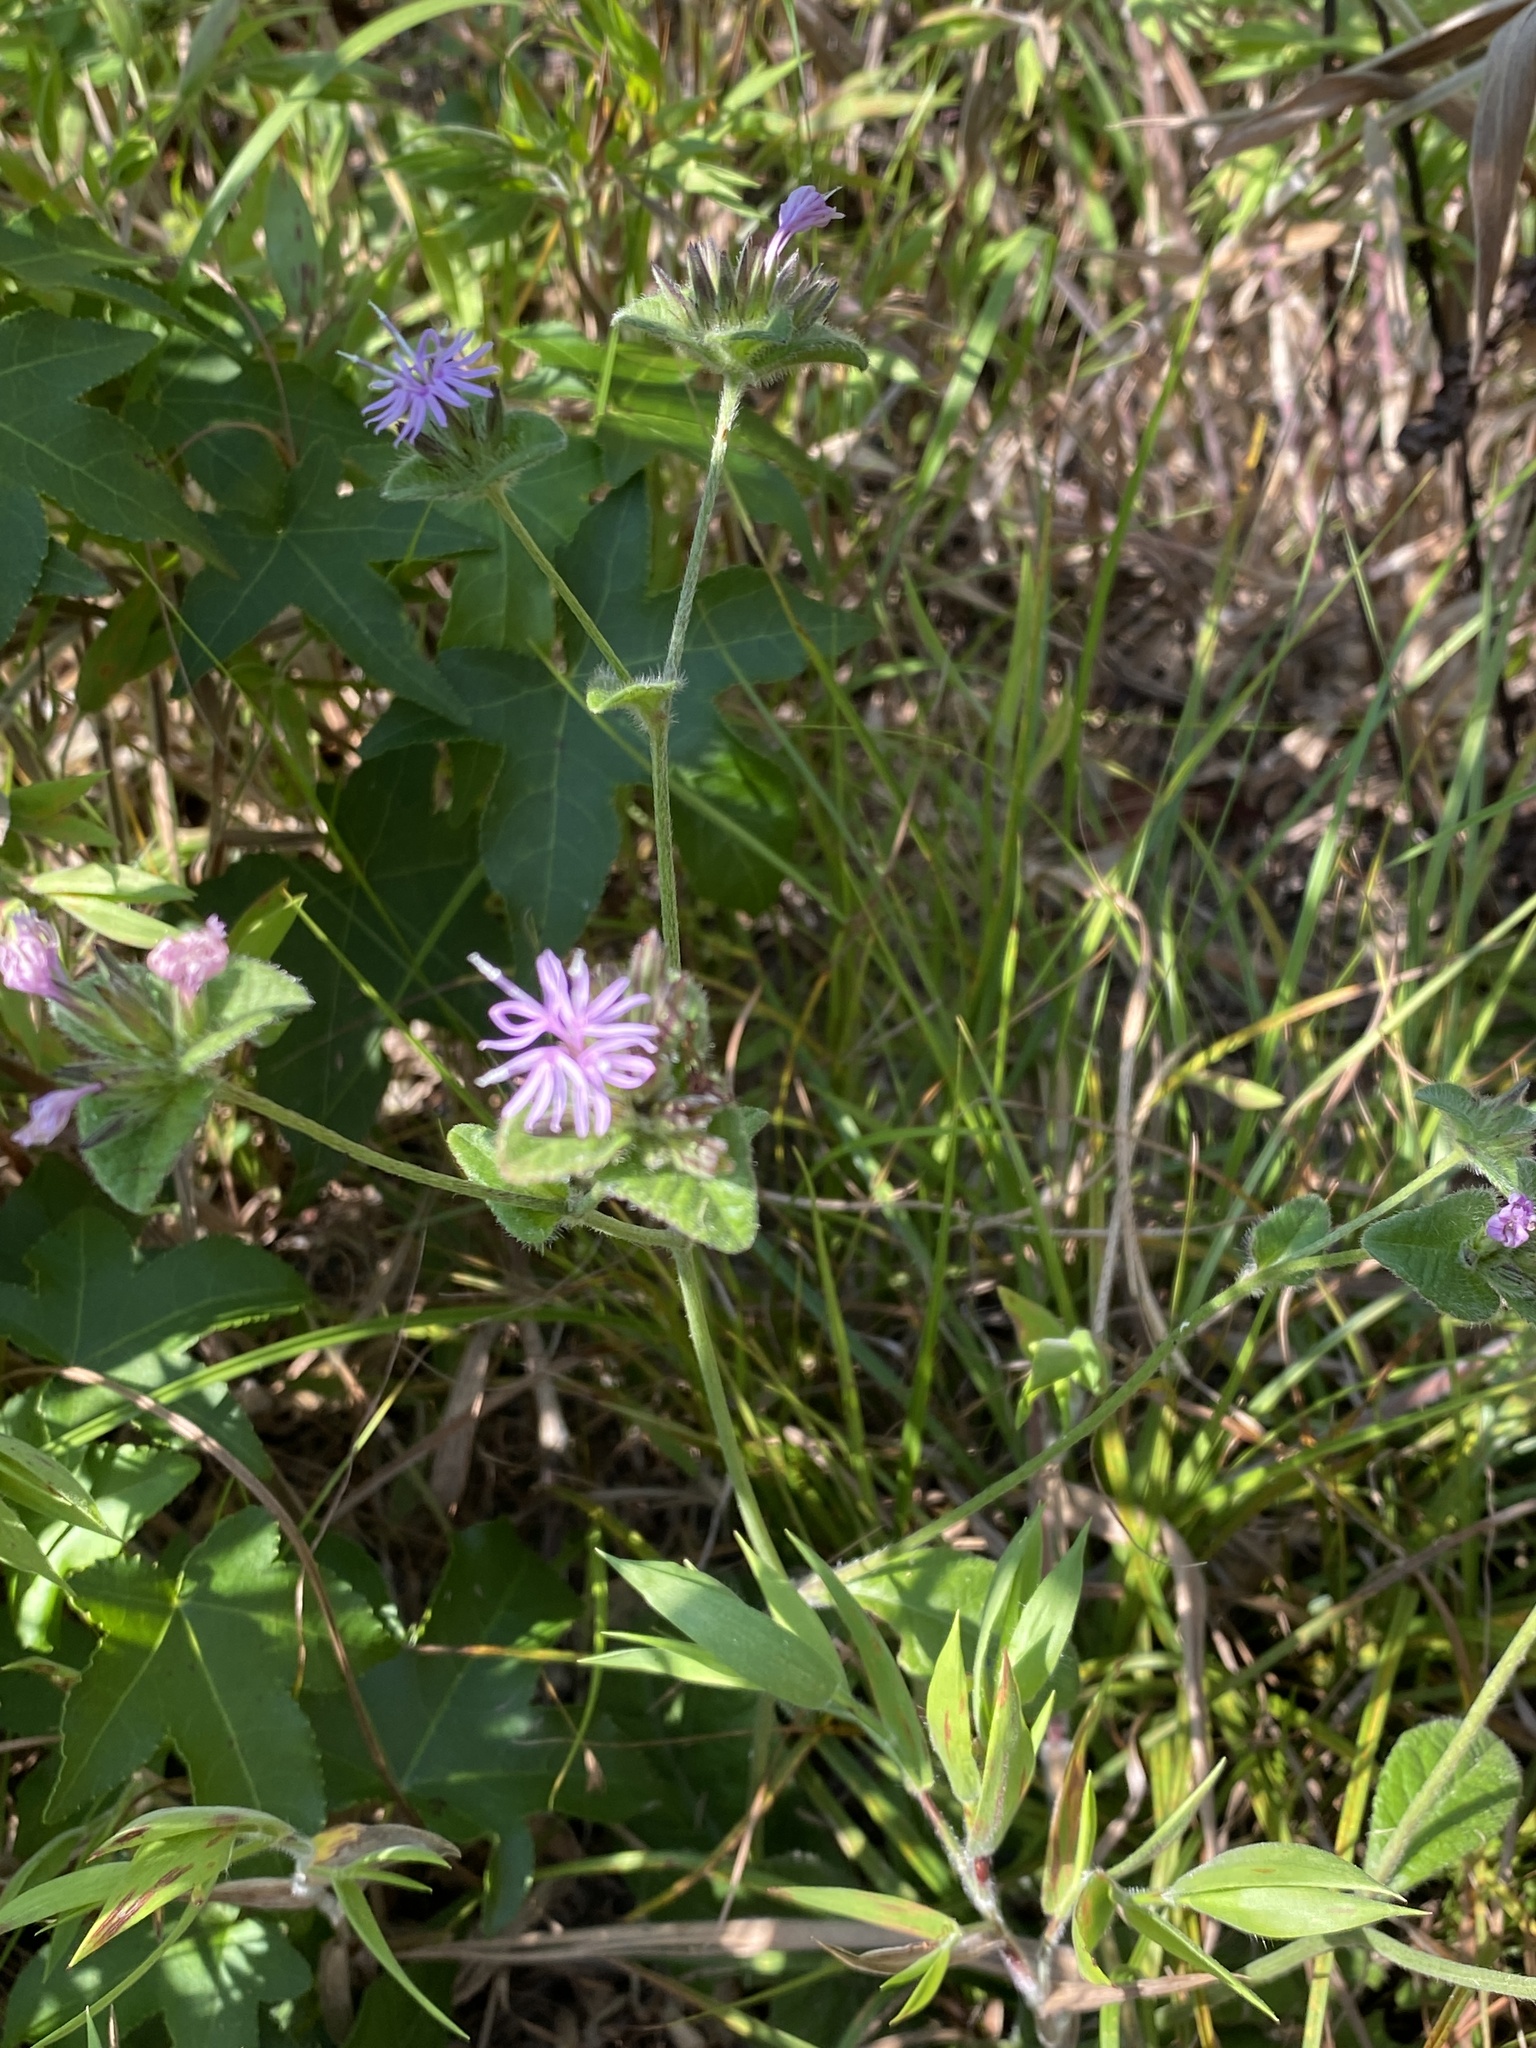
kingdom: Plantae
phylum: Tracheophyta
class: Magnoliopsida
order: Asterales
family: Asteraceae
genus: Elephantopus
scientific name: Elephantopus carolinianus
